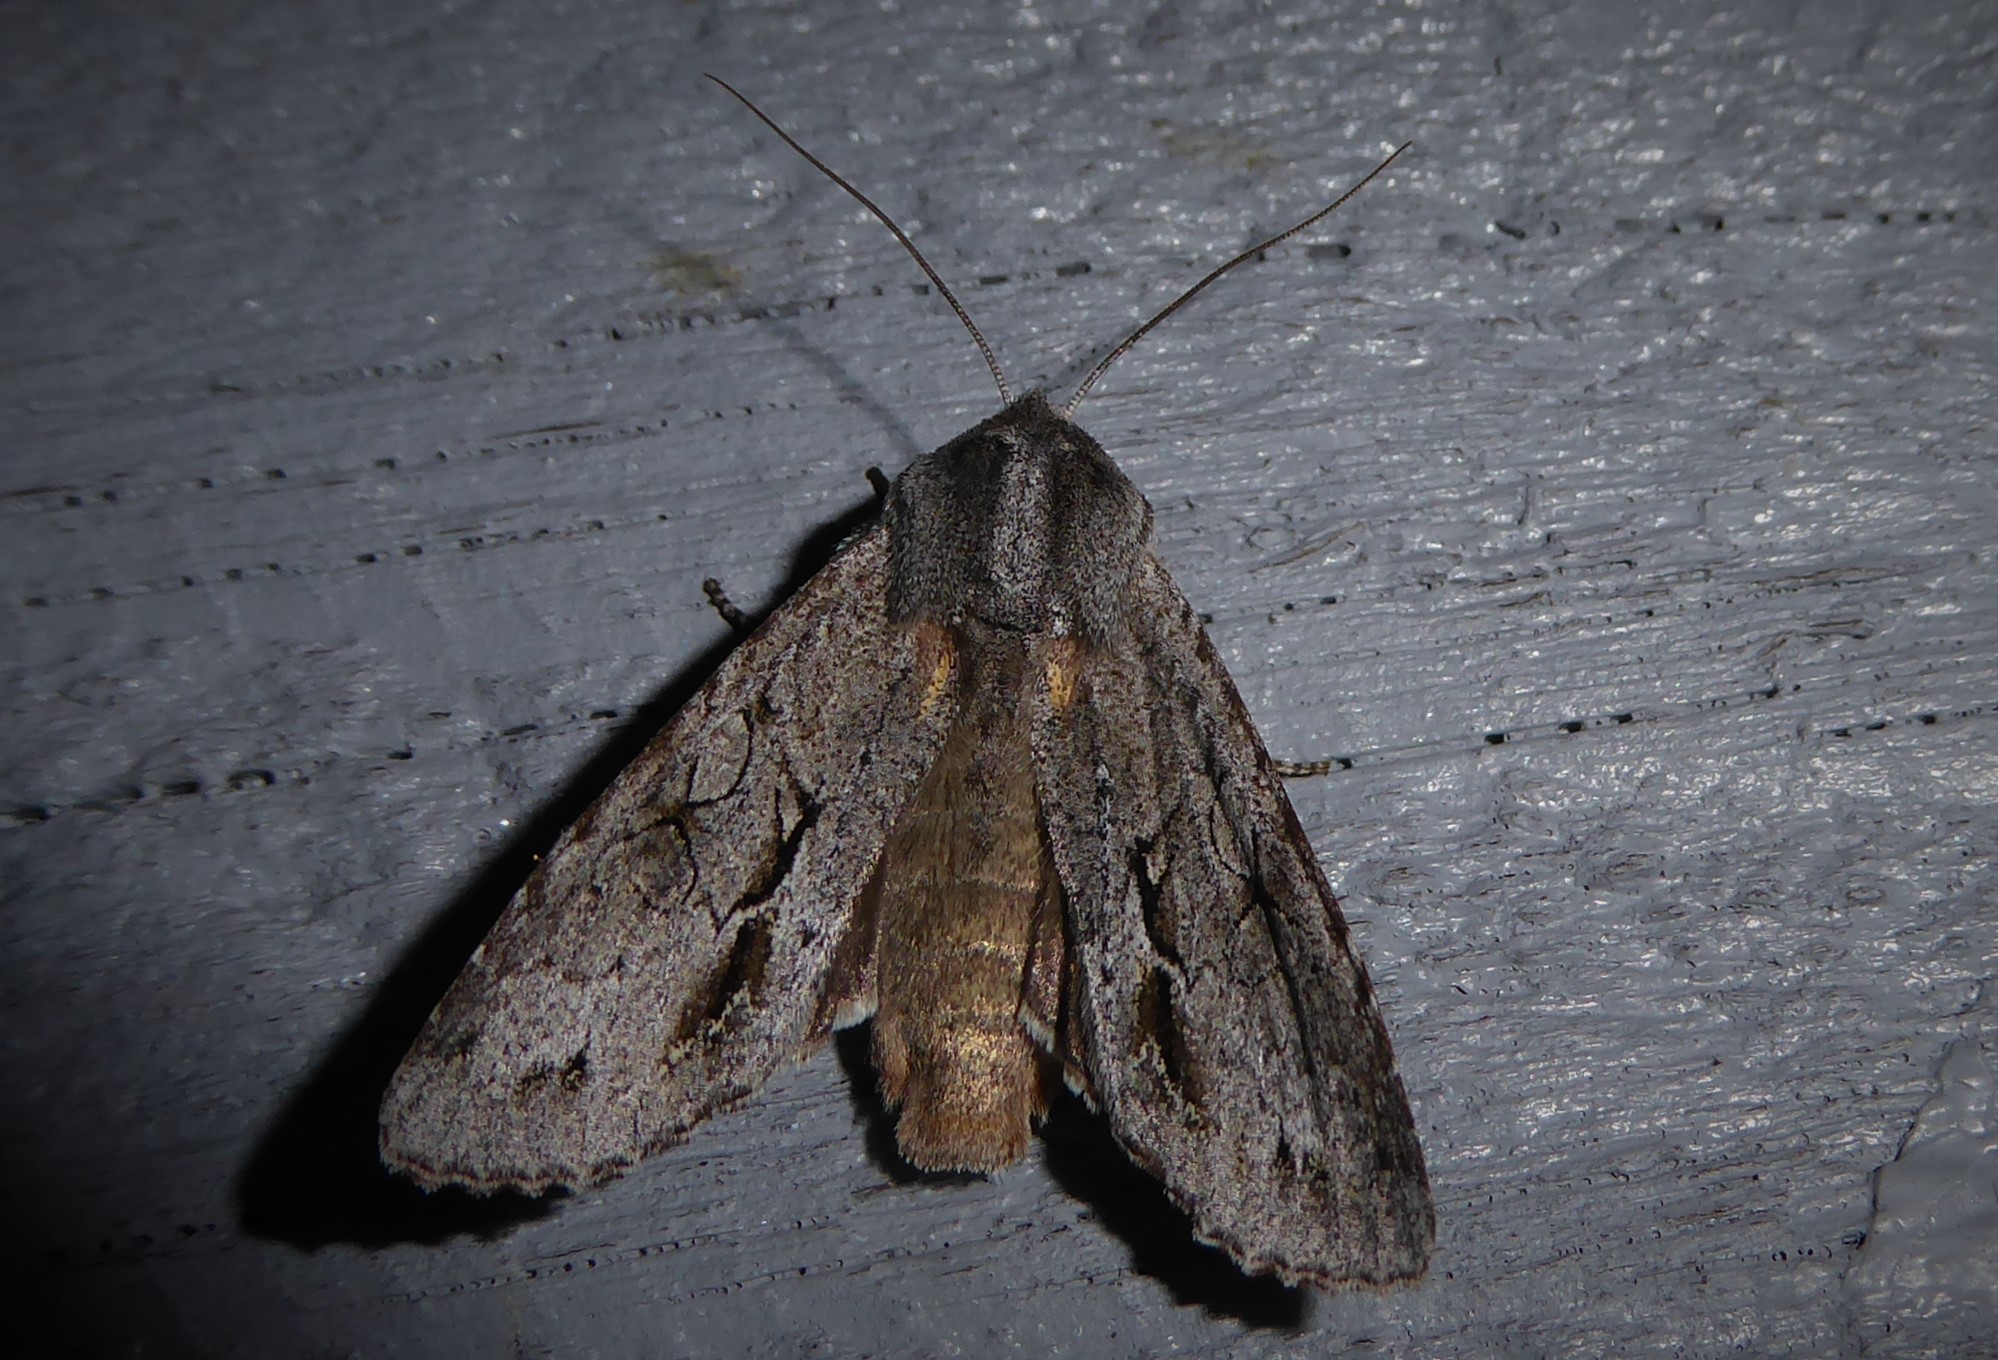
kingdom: Animalia
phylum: Arthropoda
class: Insecta
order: Lepidoptera
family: Noctuidae
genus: Ichneutica
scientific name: Ichneutica
